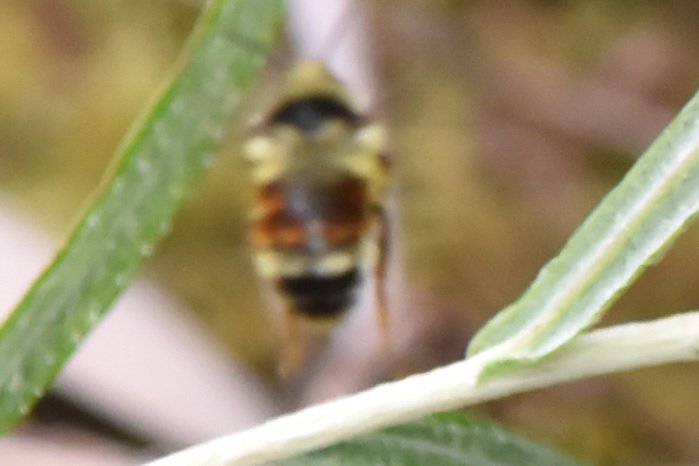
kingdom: Animalia
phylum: Arthropoda
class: Insecta
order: Hymenoptera
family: Apidae
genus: Bombus
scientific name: Bombus vancouverensis
